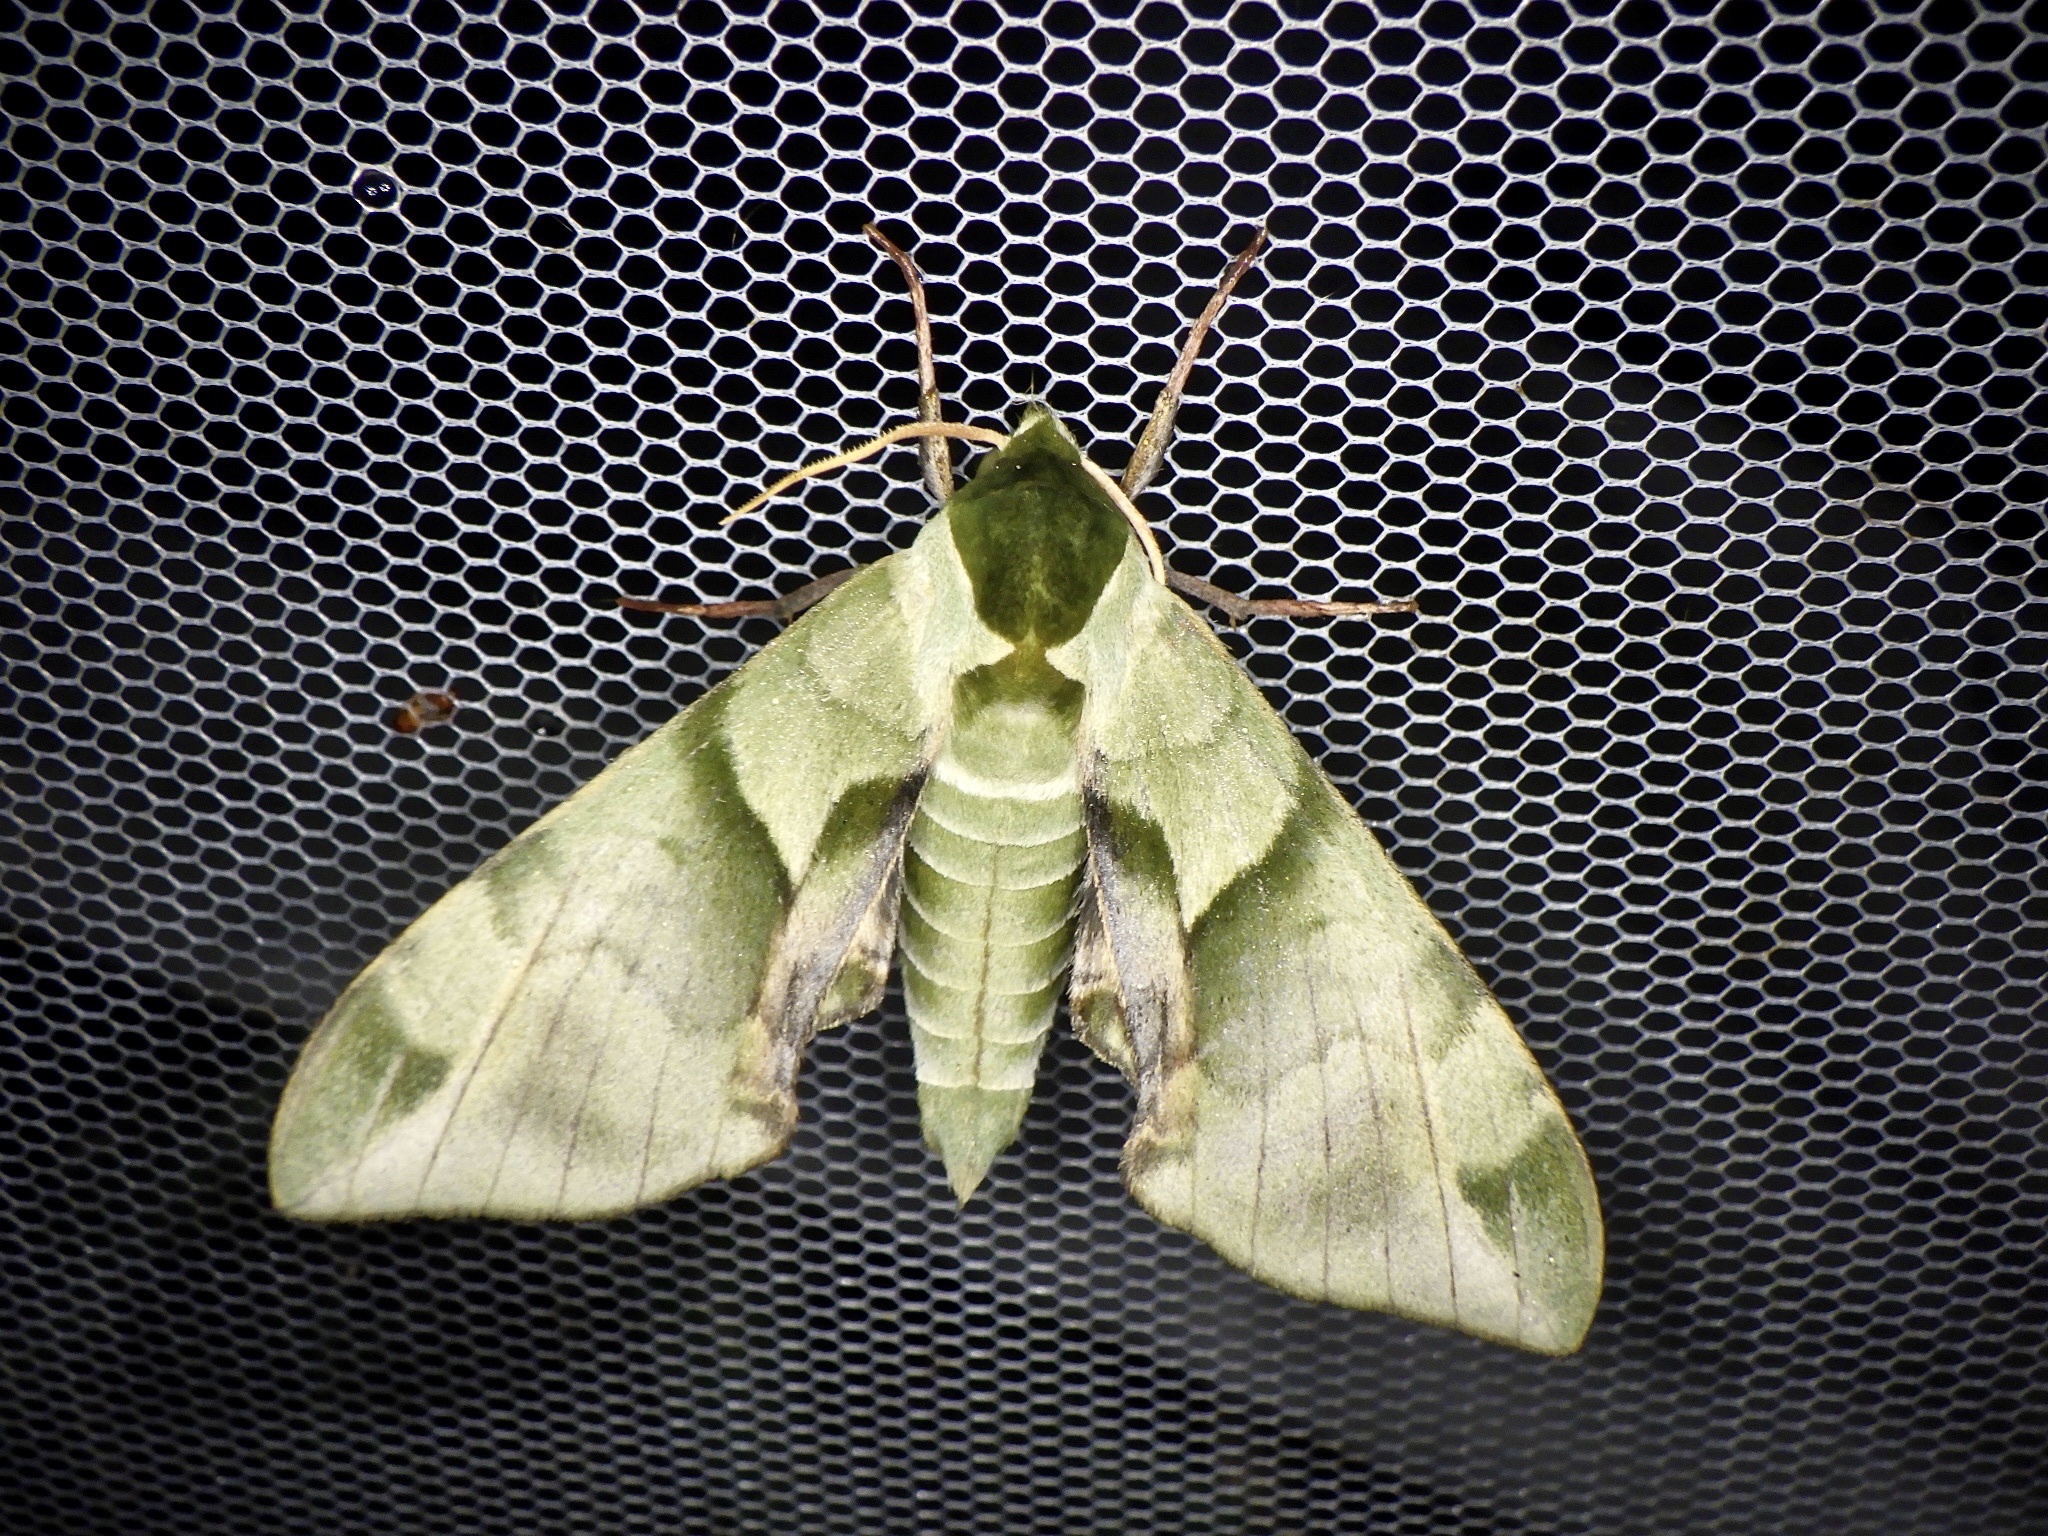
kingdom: Animalia
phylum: Arthropoda
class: Insecta
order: Lepidoptera
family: Sphingidae
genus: Callambulyx
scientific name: Callambulyx tatarinovii
